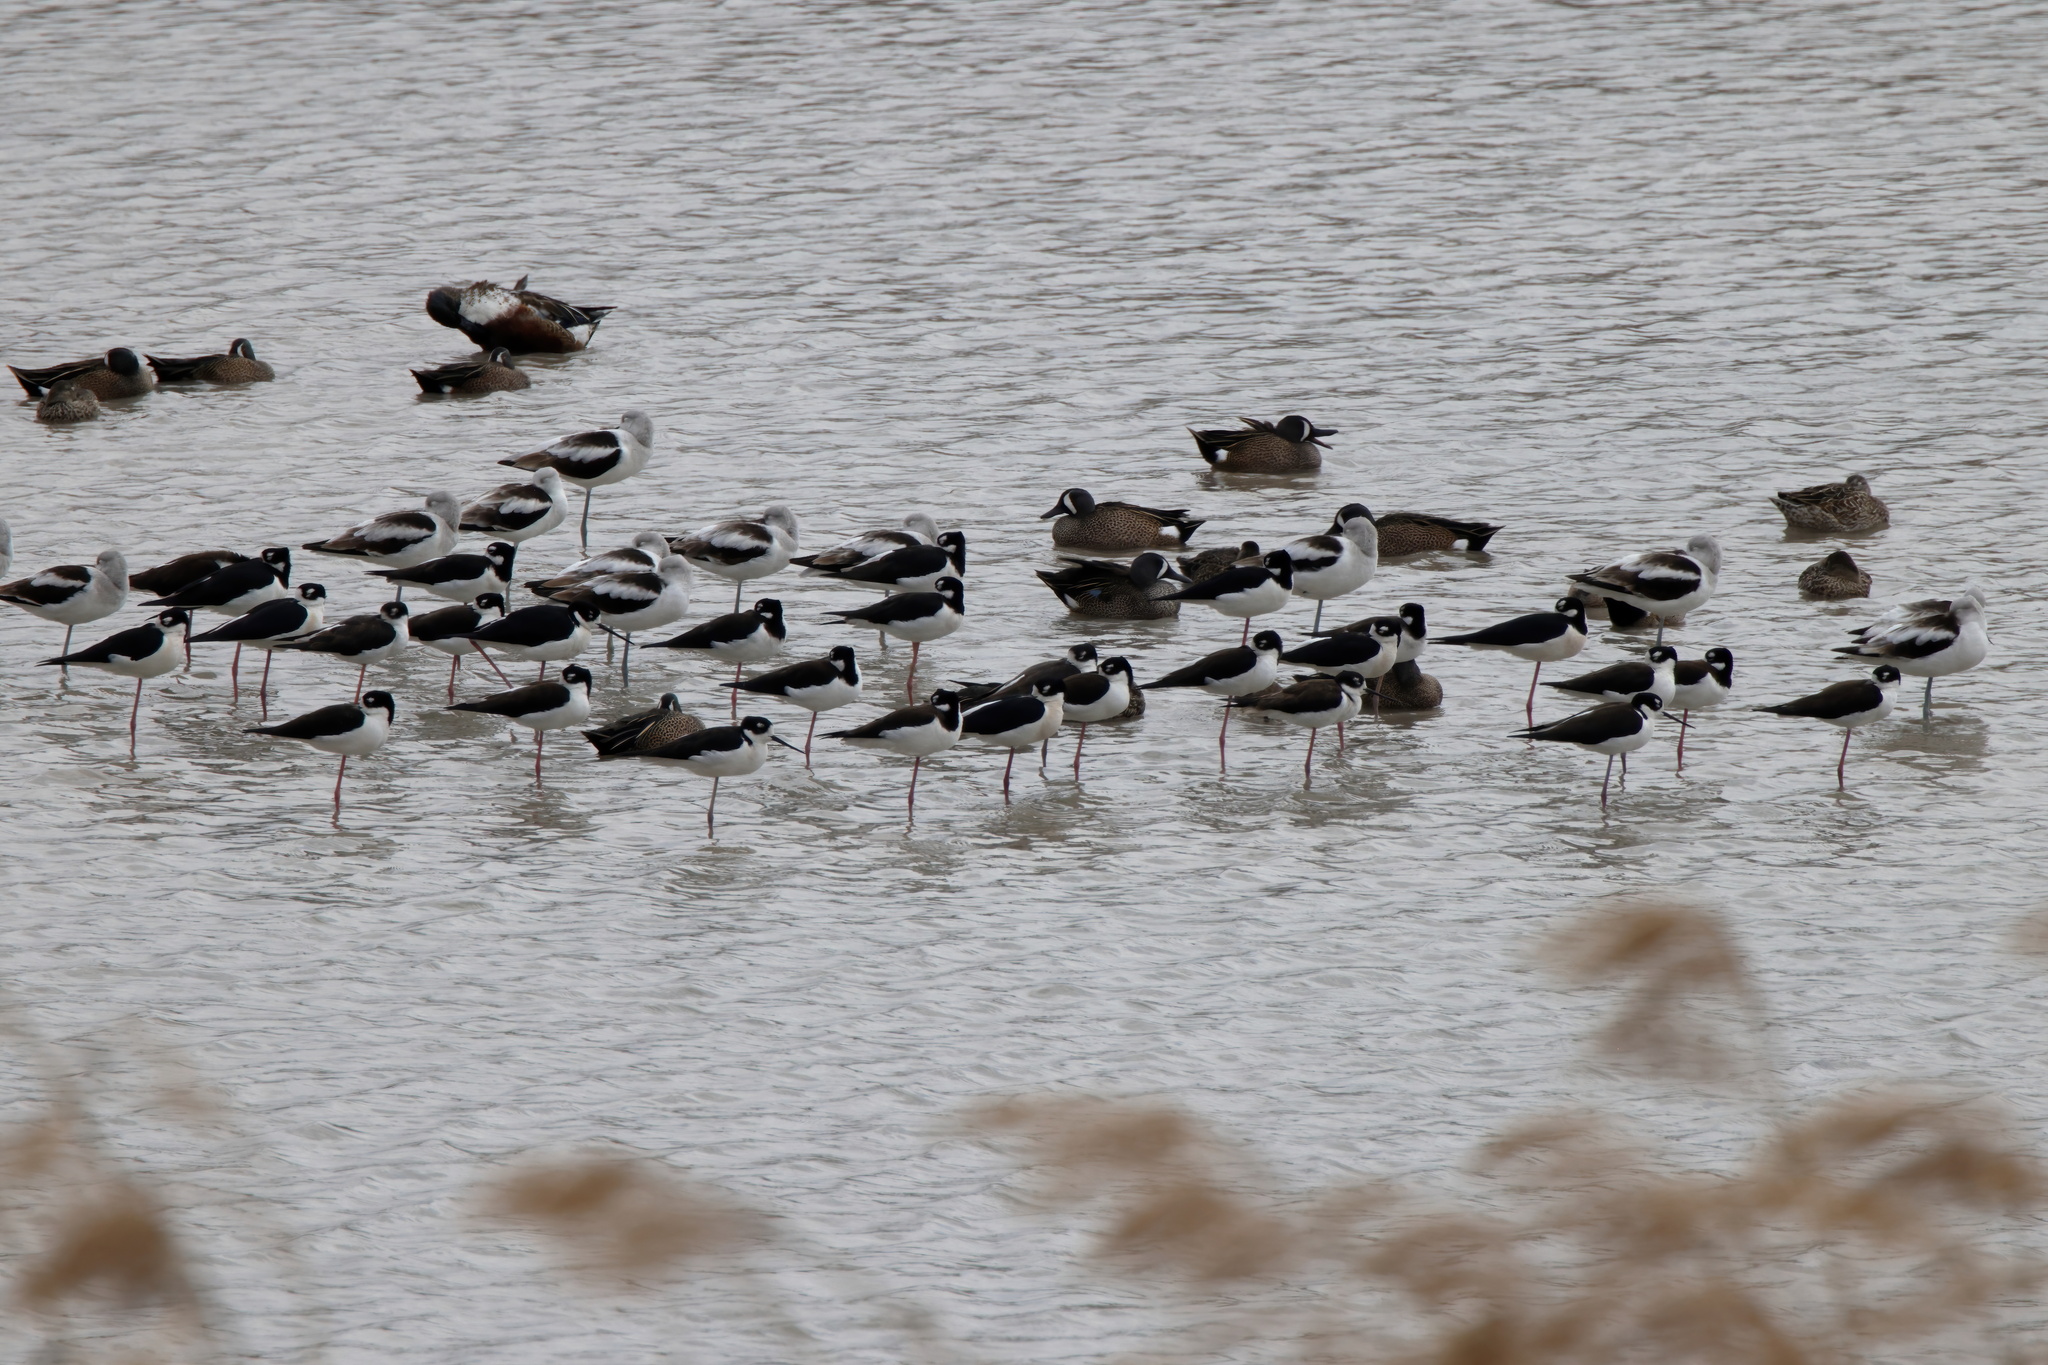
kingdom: Animalia
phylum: Chordata
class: Aves
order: Charadriiformes
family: Recurvirostridae
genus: Himantopus
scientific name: Himantopus mexicanus
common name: Black-necked stilt
